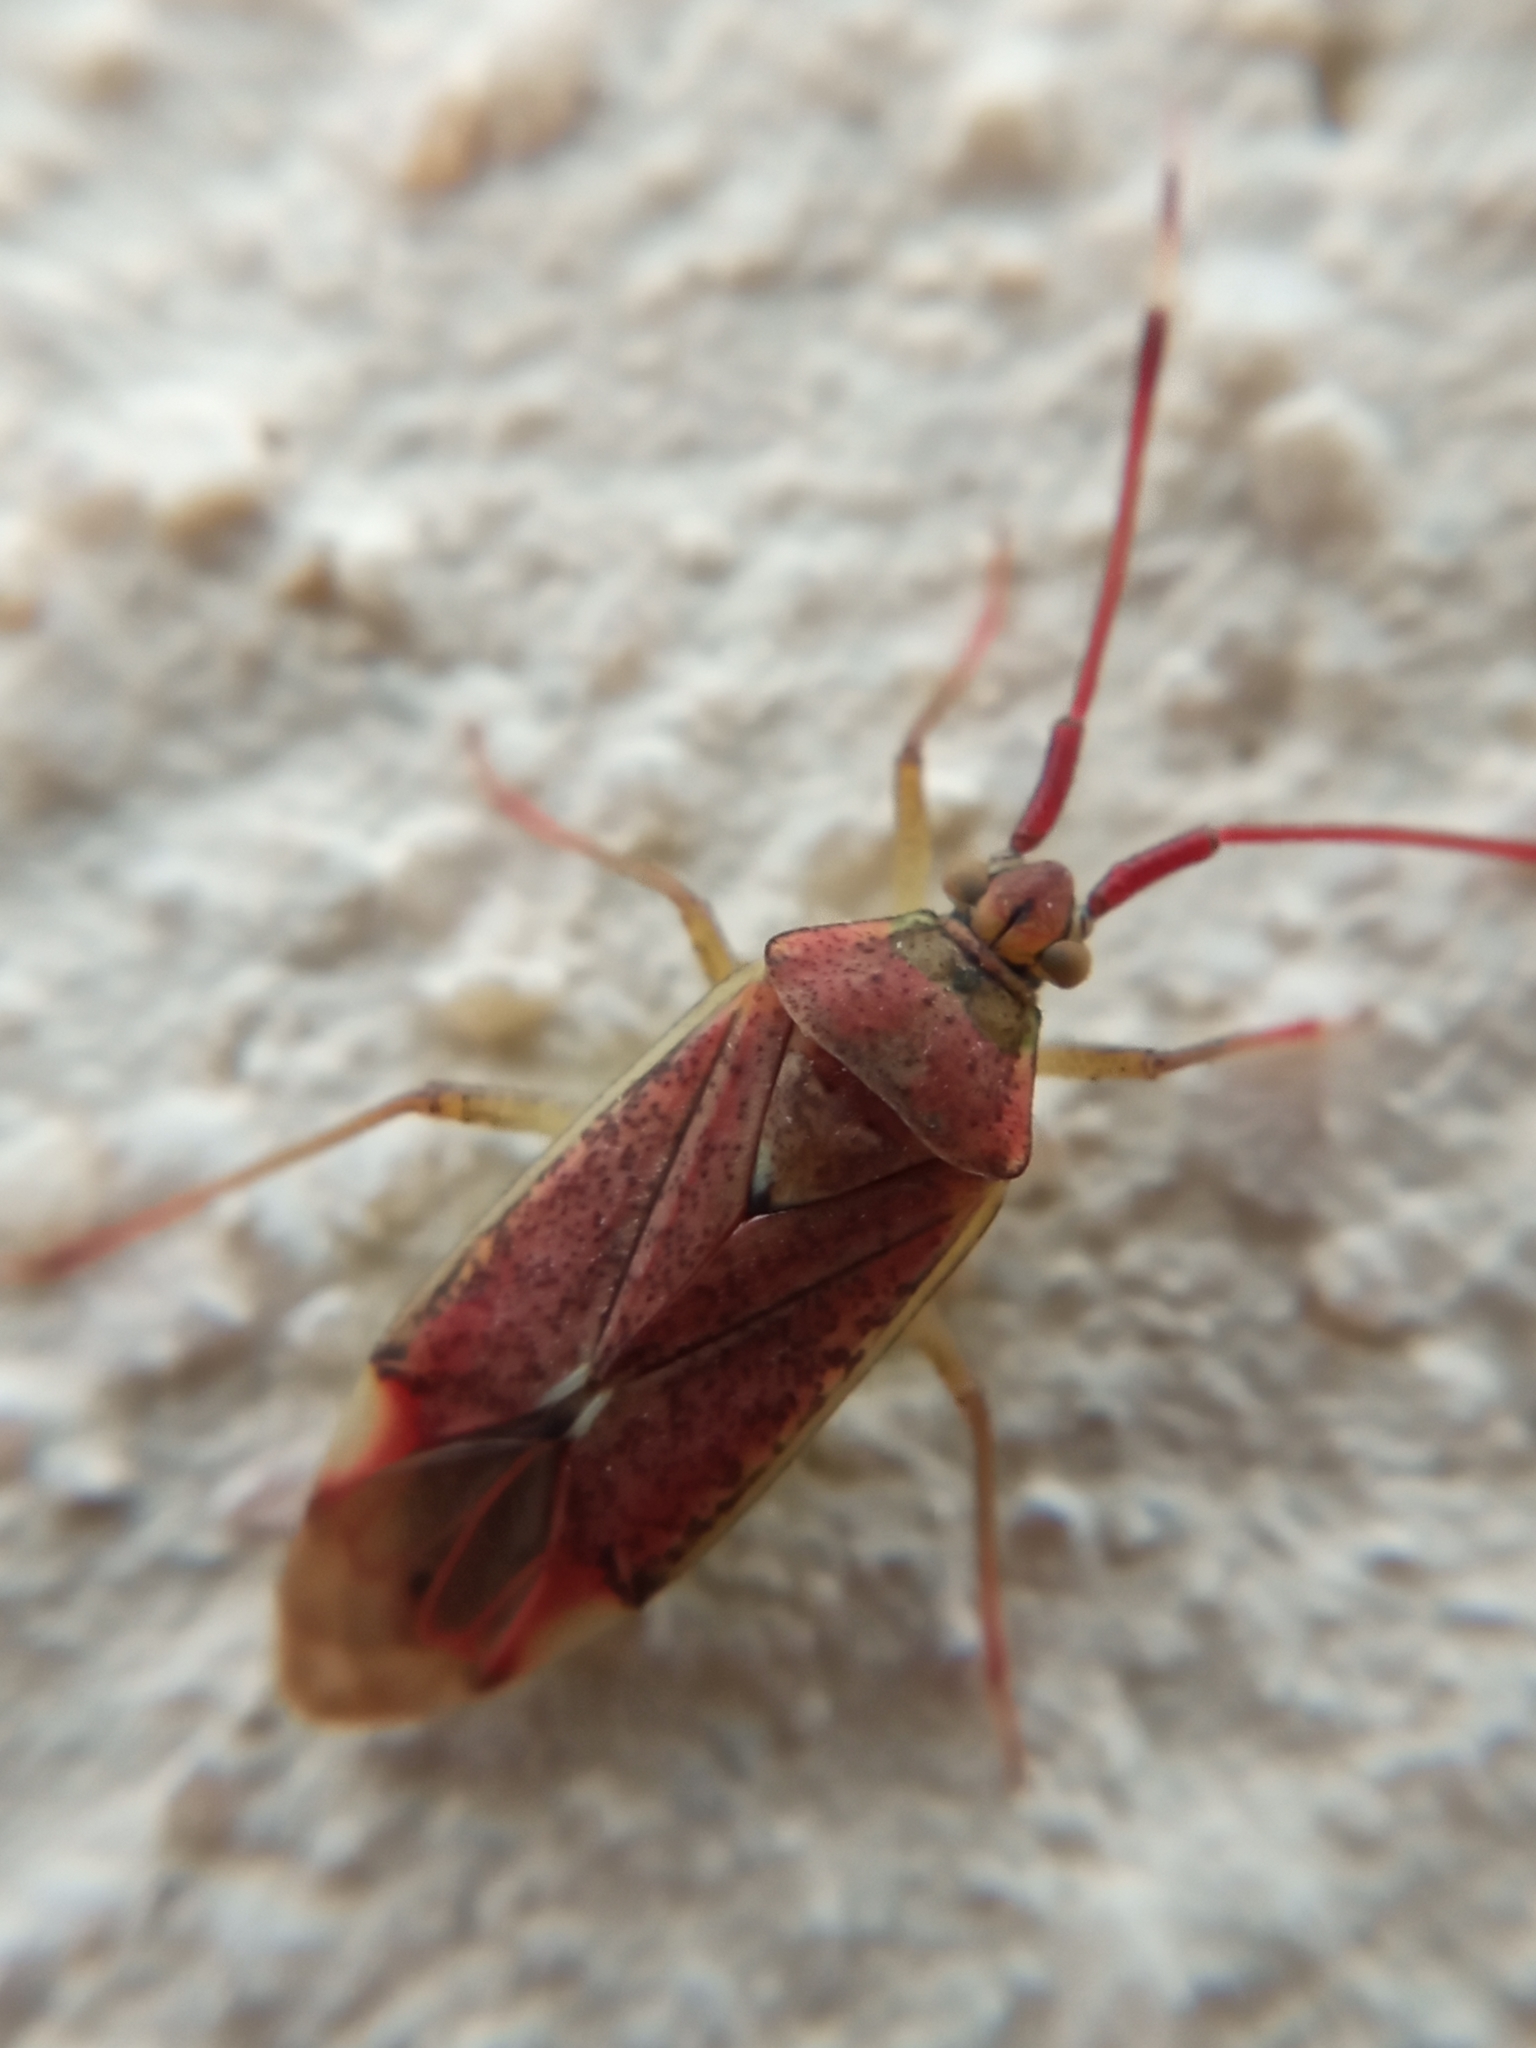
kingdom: Animalia
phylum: Arthropoda
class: Insecta
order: Hemiptera
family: Miridae
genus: Pantilius
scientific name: Pantilius tunicatus
